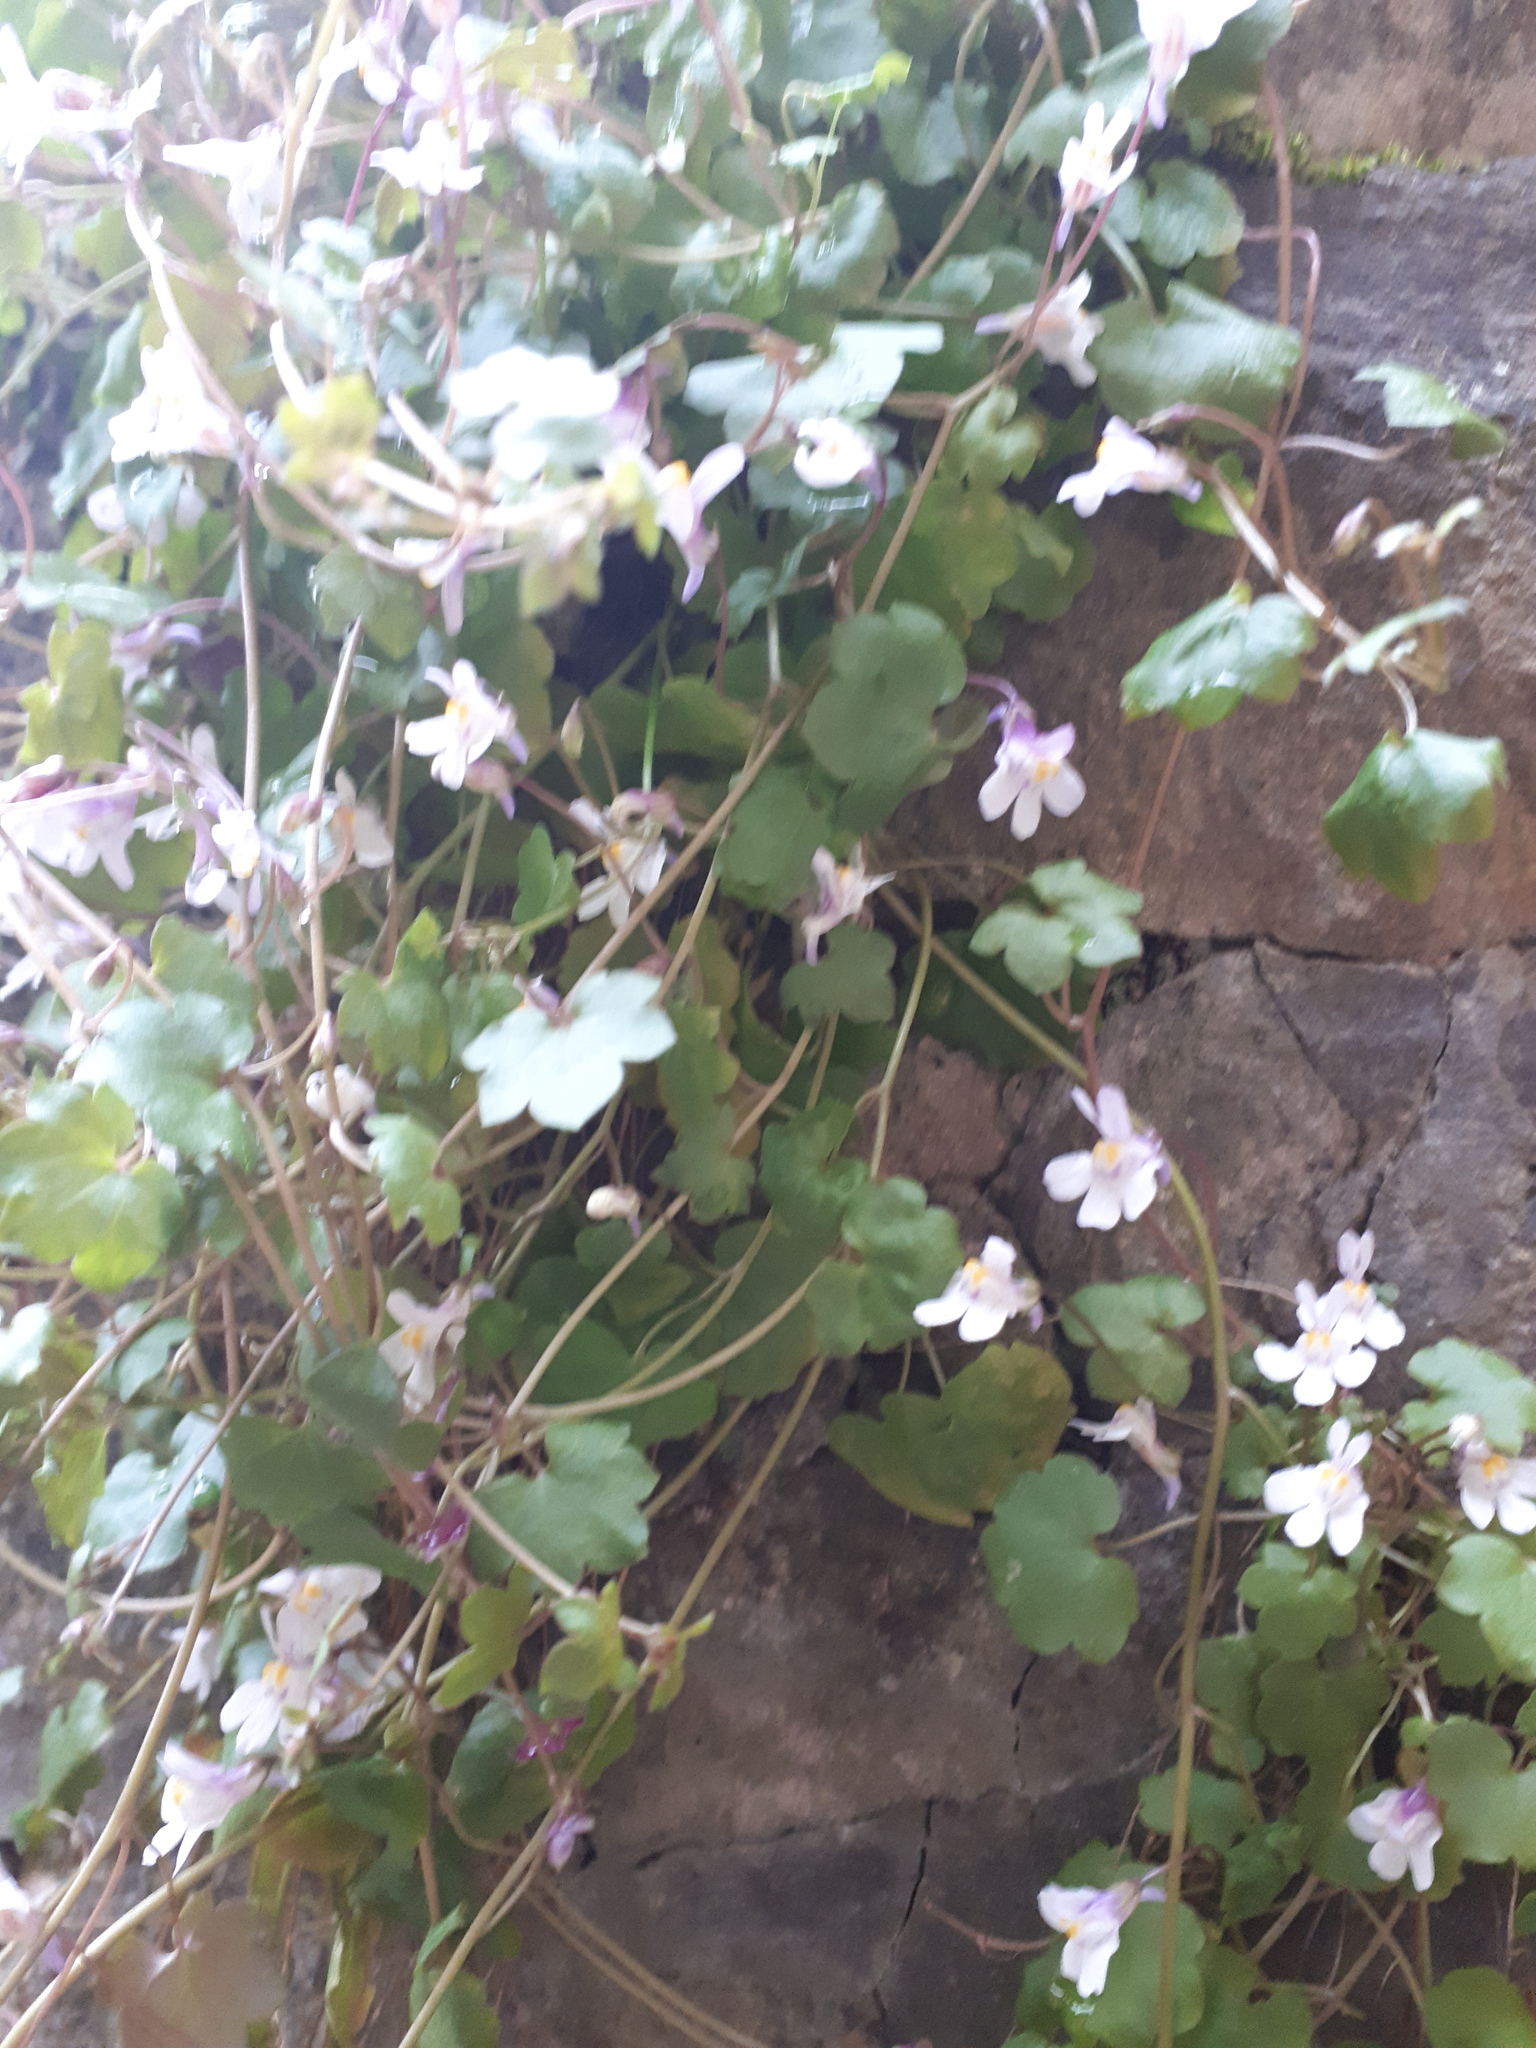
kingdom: Plantae
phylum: Tracheophyta
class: Magnoliopsida
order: Lamiales
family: Plantaginaceae
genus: Cymbalaria
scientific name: Cymbalaria muralis
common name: Ivy-leaved toadflax
